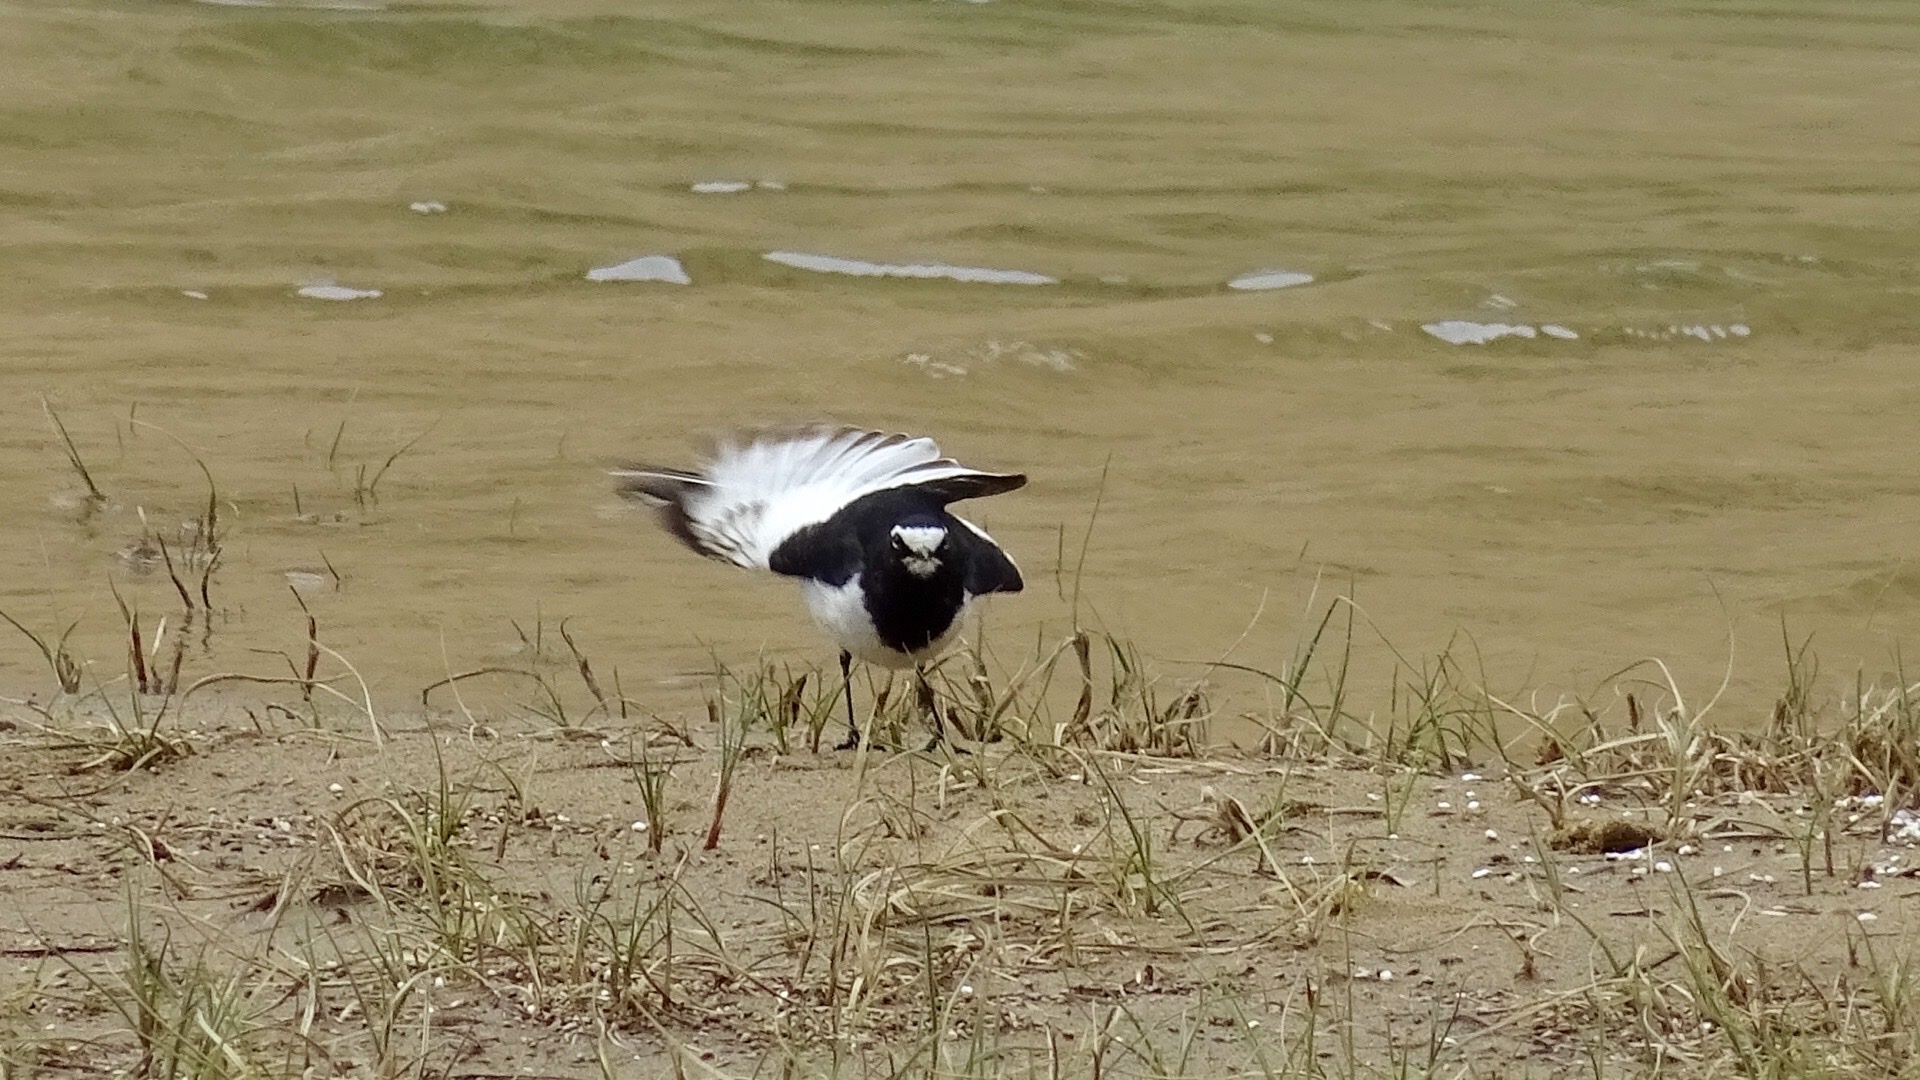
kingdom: Animalia
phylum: Chordata
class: Aves
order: Passeriformes
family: Motacillidae
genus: Motacilla
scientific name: Motacilla grandis
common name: Japanese wagtail
